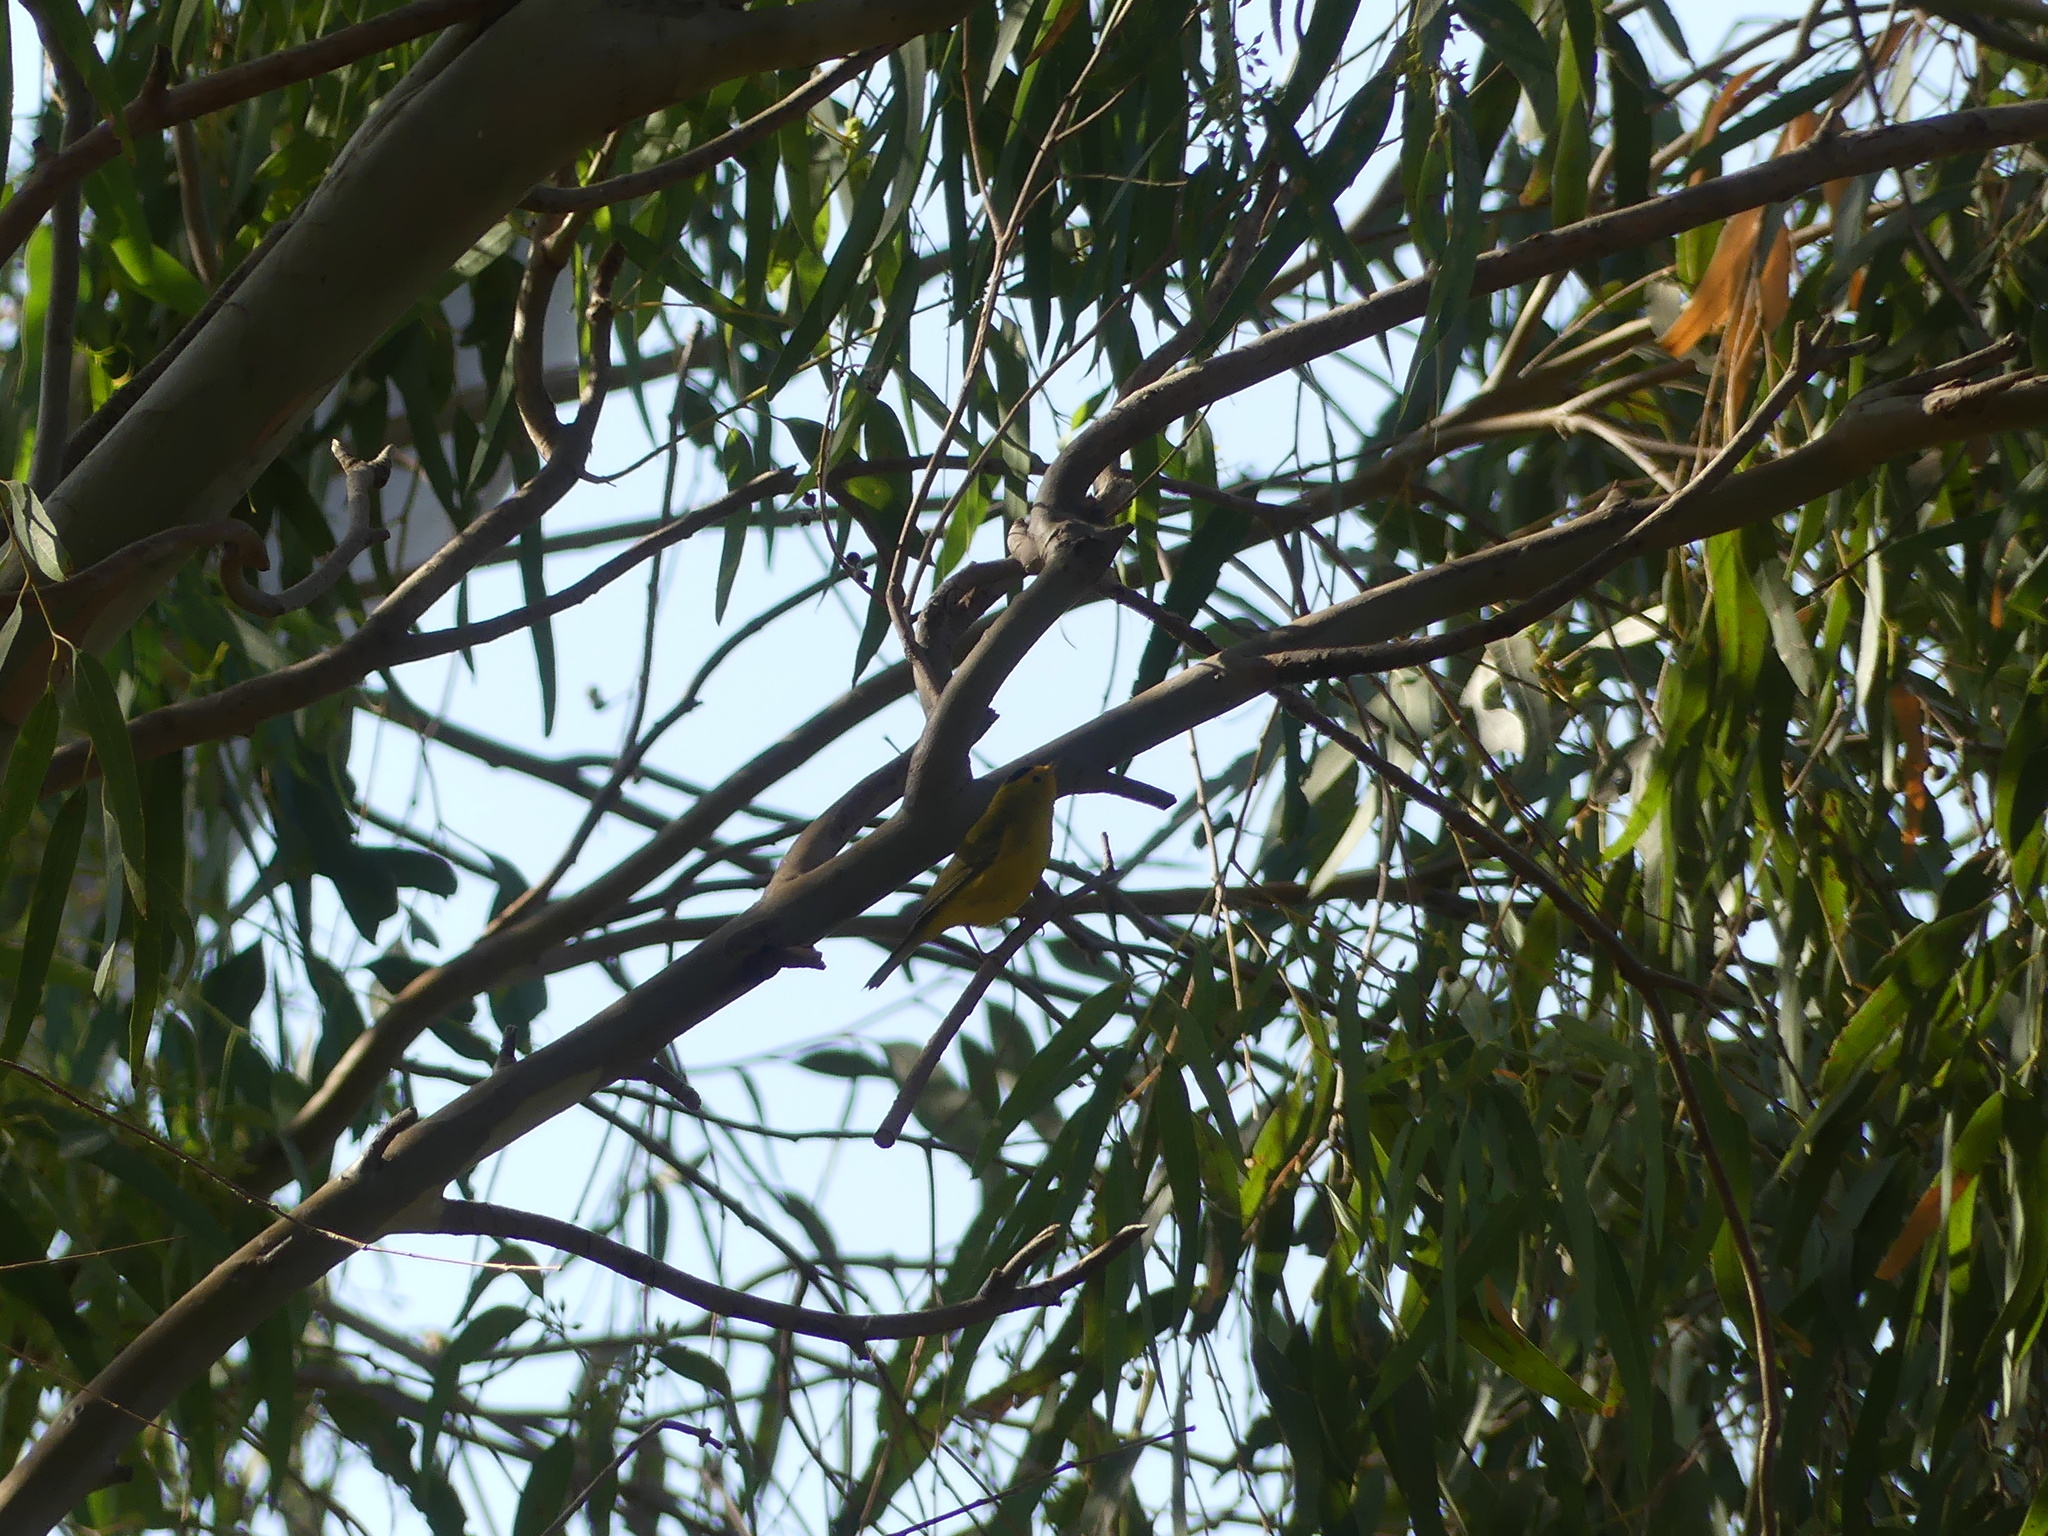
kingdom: Animalia
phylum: Chordata
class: Aves
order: Passeriformes
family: Parulidae
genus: Cardellina
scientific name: Cardellina pusilla
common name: Wilson's warbler
